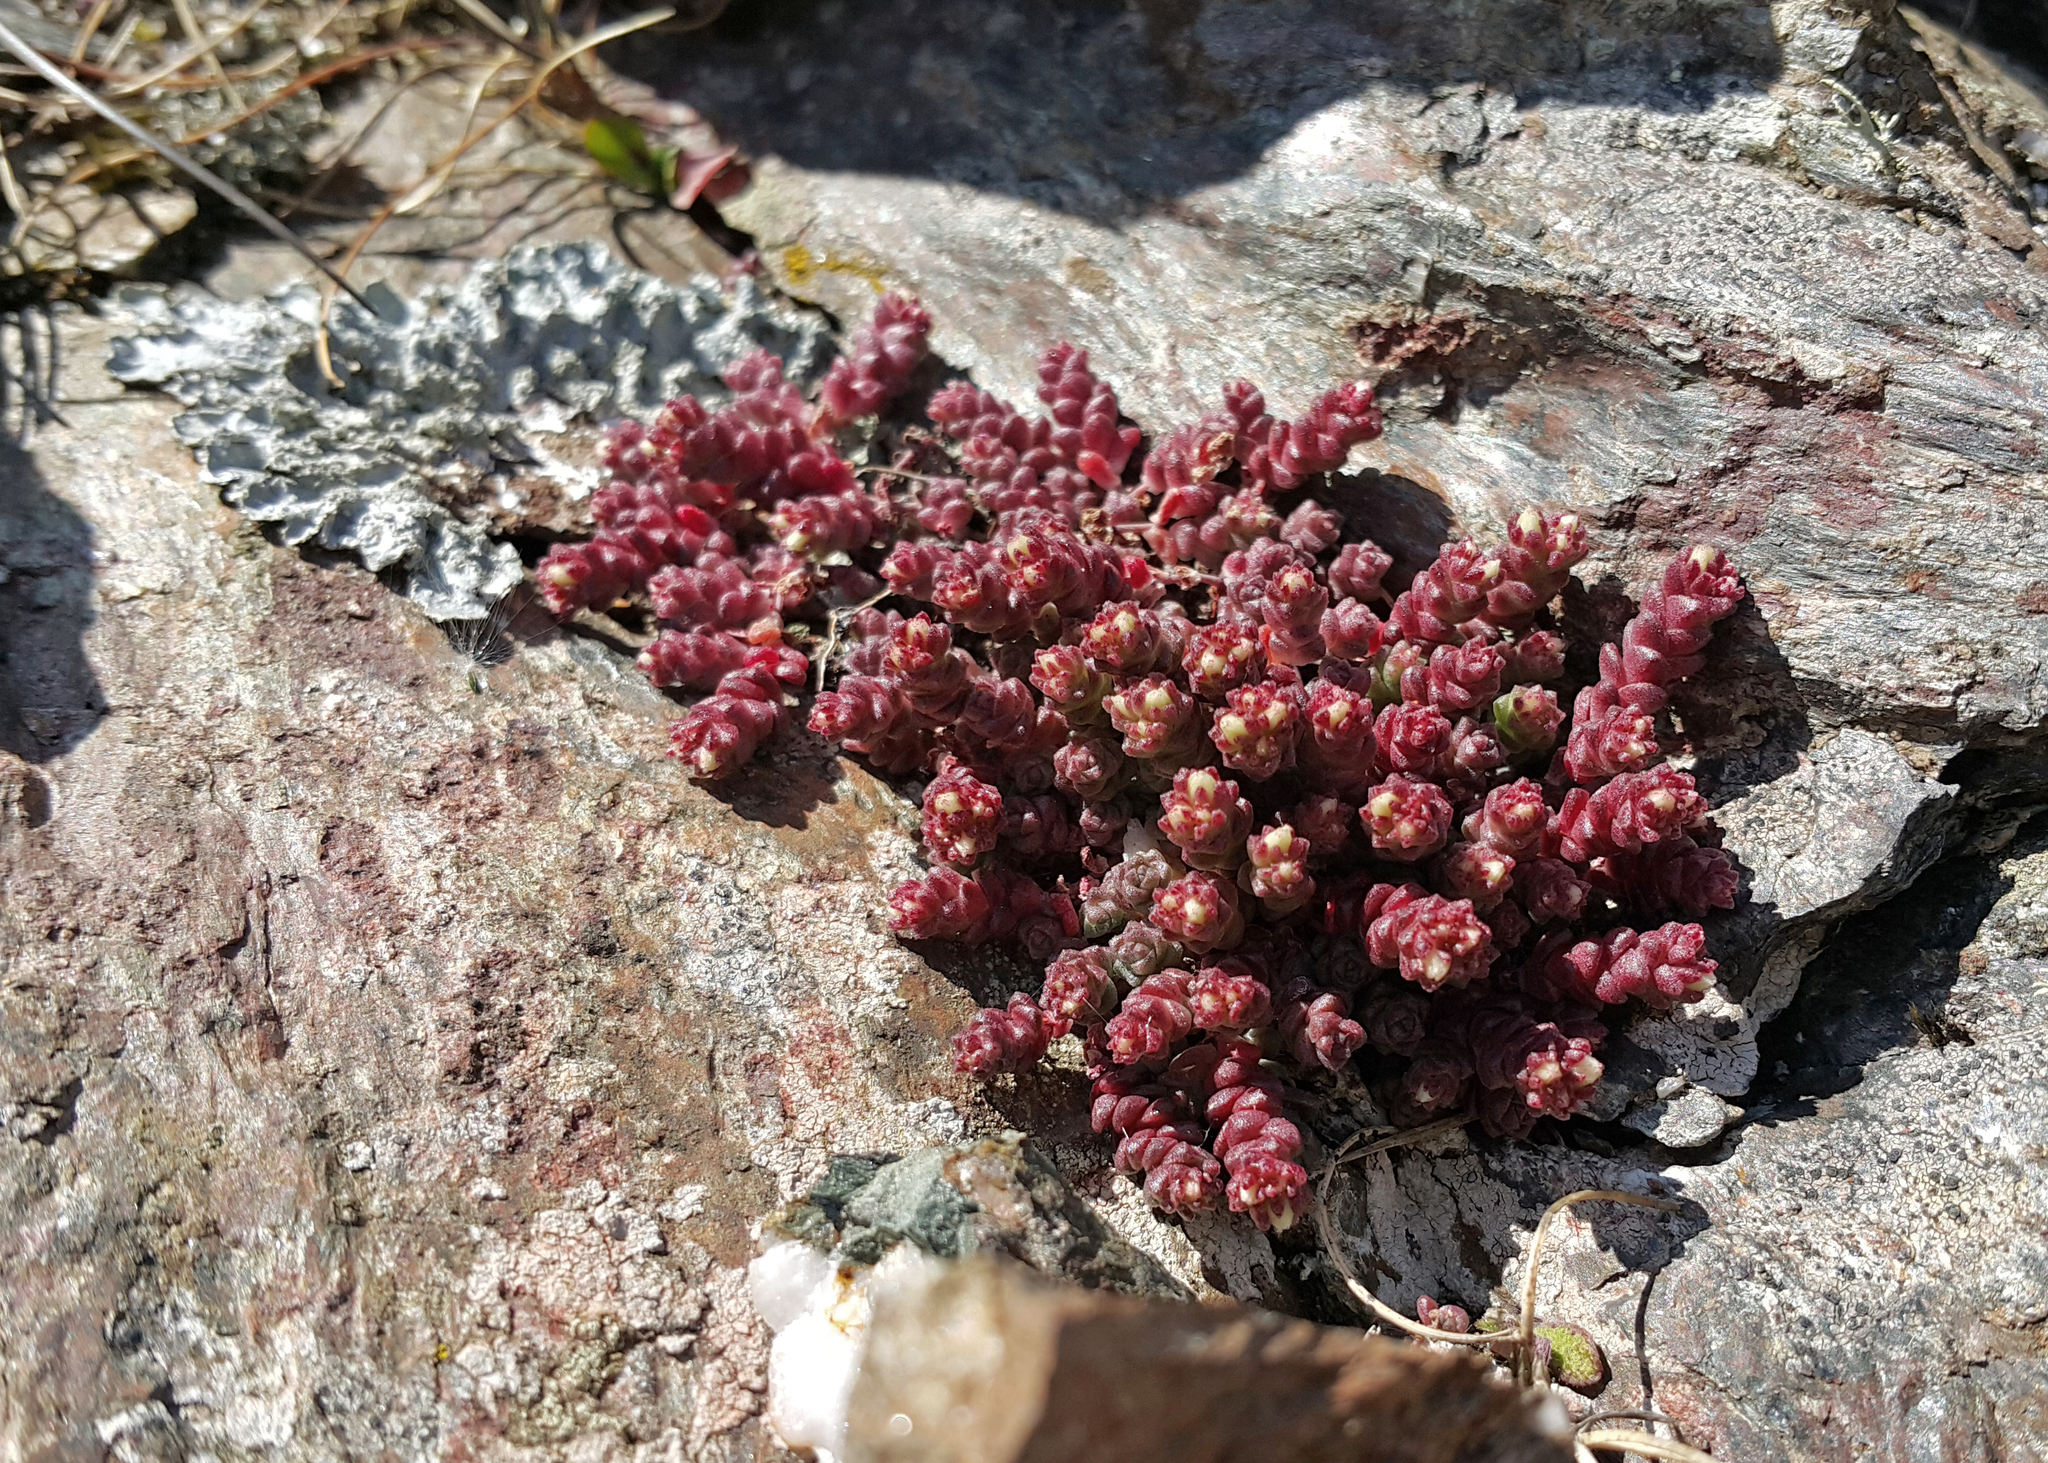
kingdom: Plantae
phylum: Tracheophyta
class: Magnoliopsida
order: Saxifragales
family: Crassulaceae
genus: Sedum
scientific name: Sedum anglicum
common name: English stonecrop
